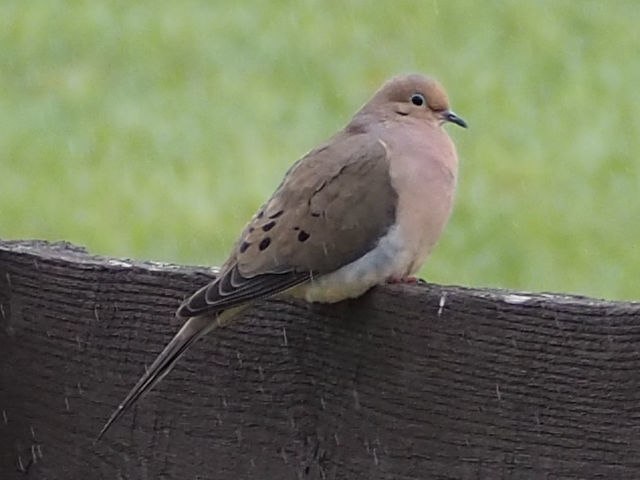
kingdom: Animalia
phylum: Chordata
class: Aves
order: Columbiformes
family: Columbidae
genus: Zenaida
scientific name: Zenaida macroura
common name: Mourning dove
